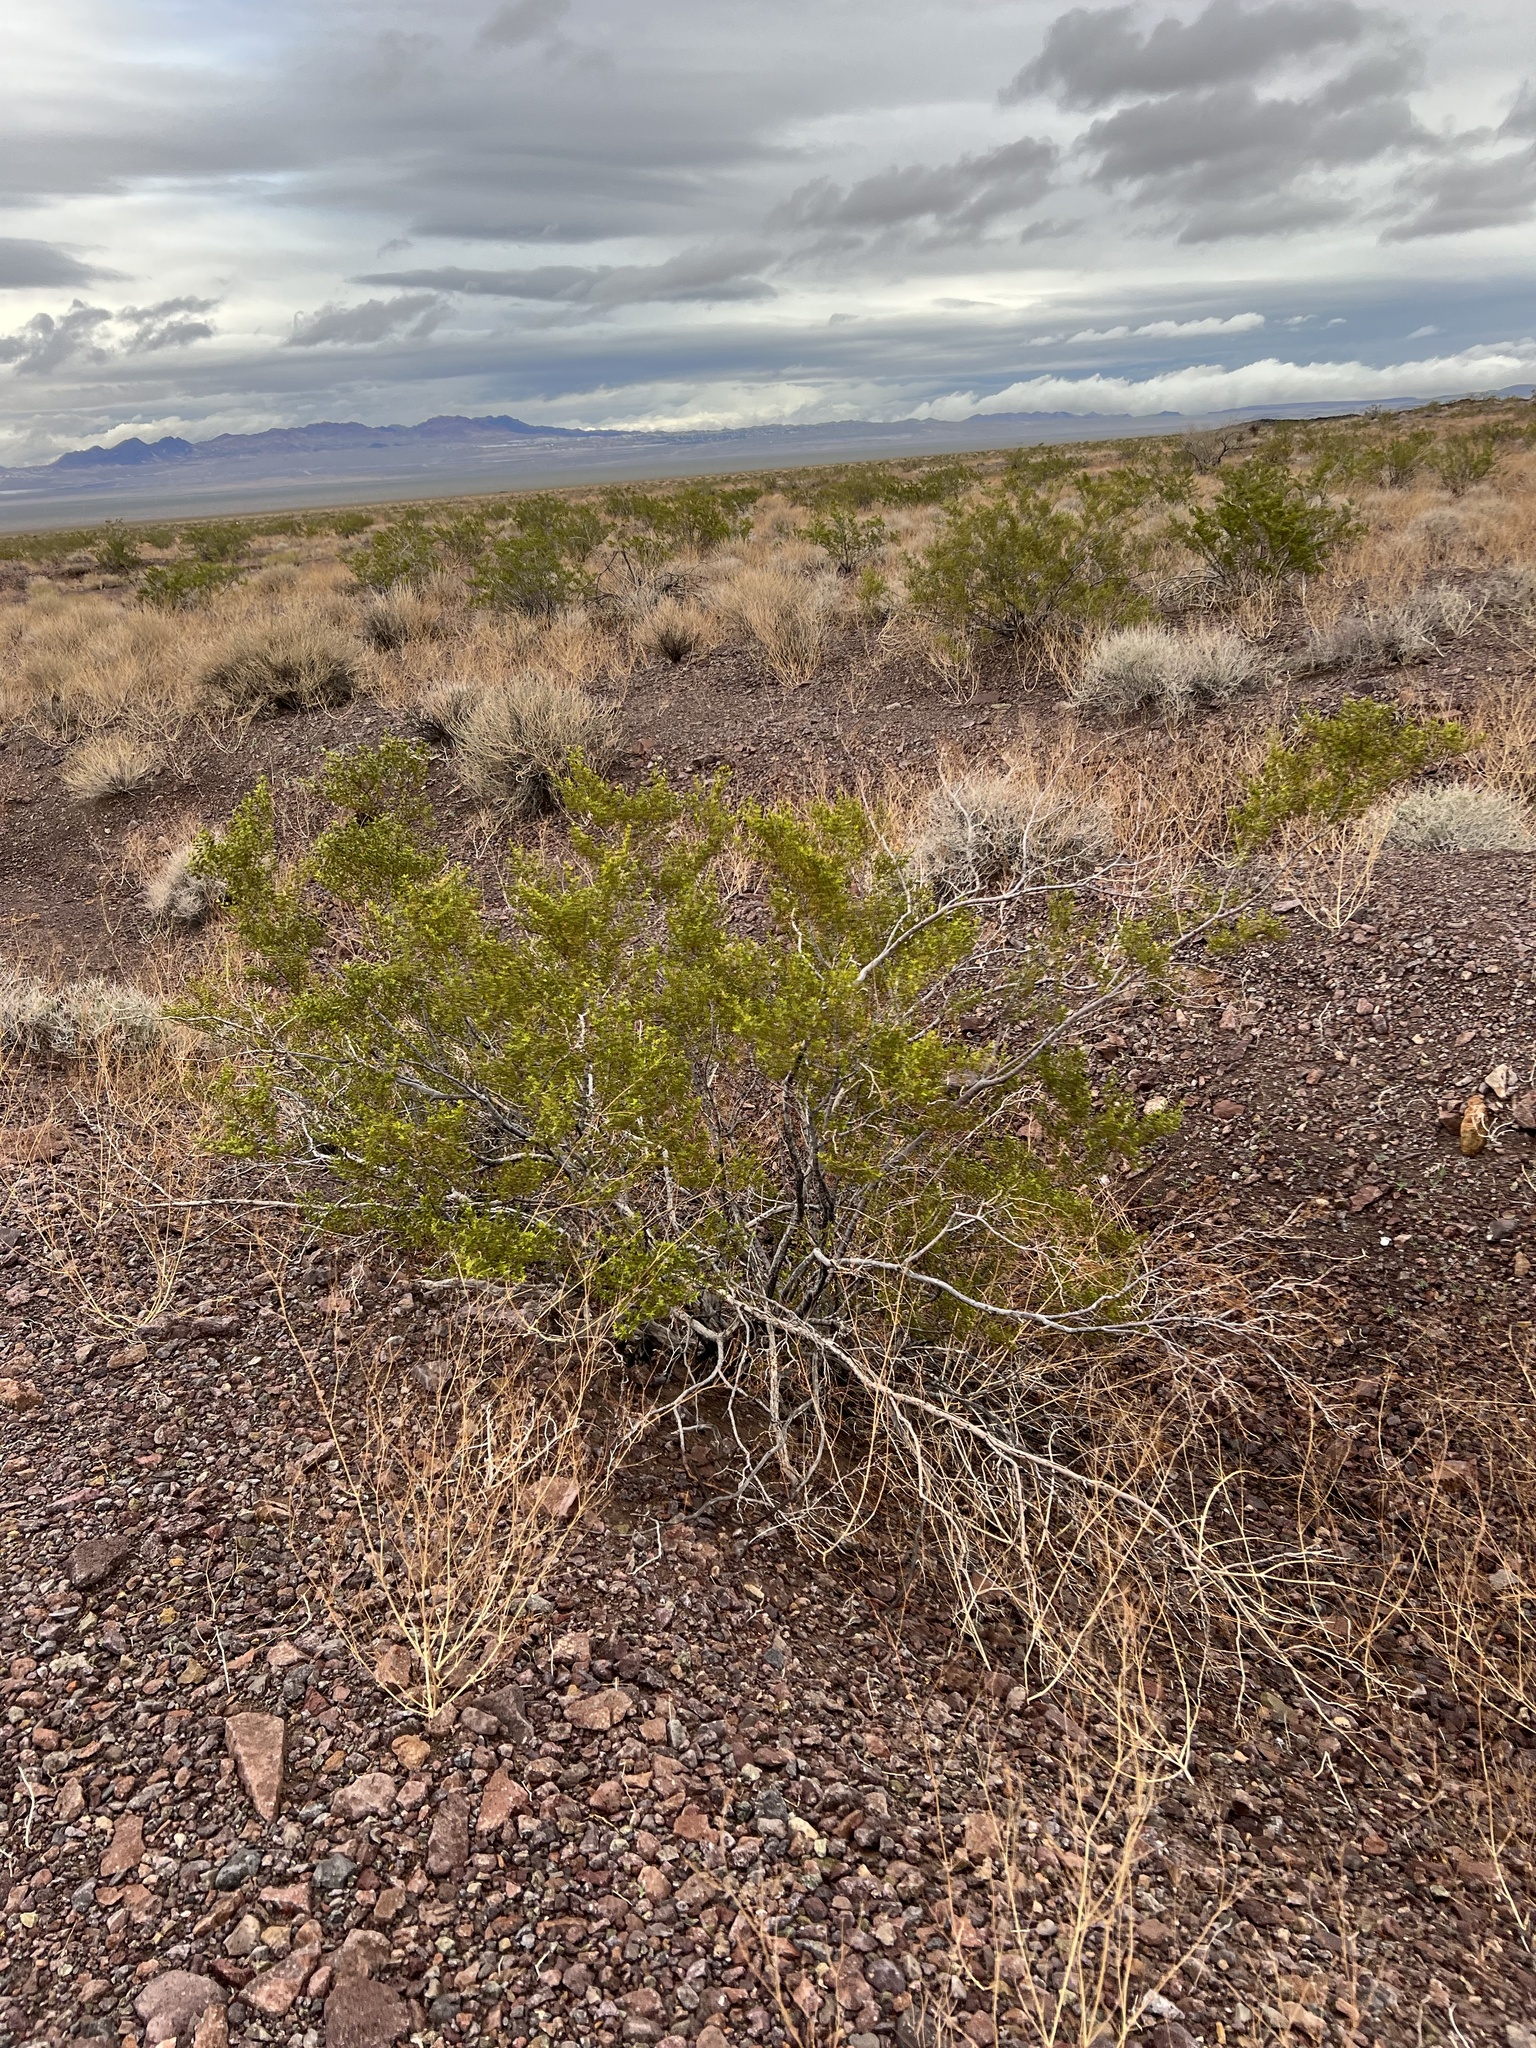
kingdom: Plantae
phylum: Tracheophyta
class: Magnoliopsida
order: Zygophyllales
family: Zygophyllaceae
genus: Larrea
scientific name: Larrea tridentata
